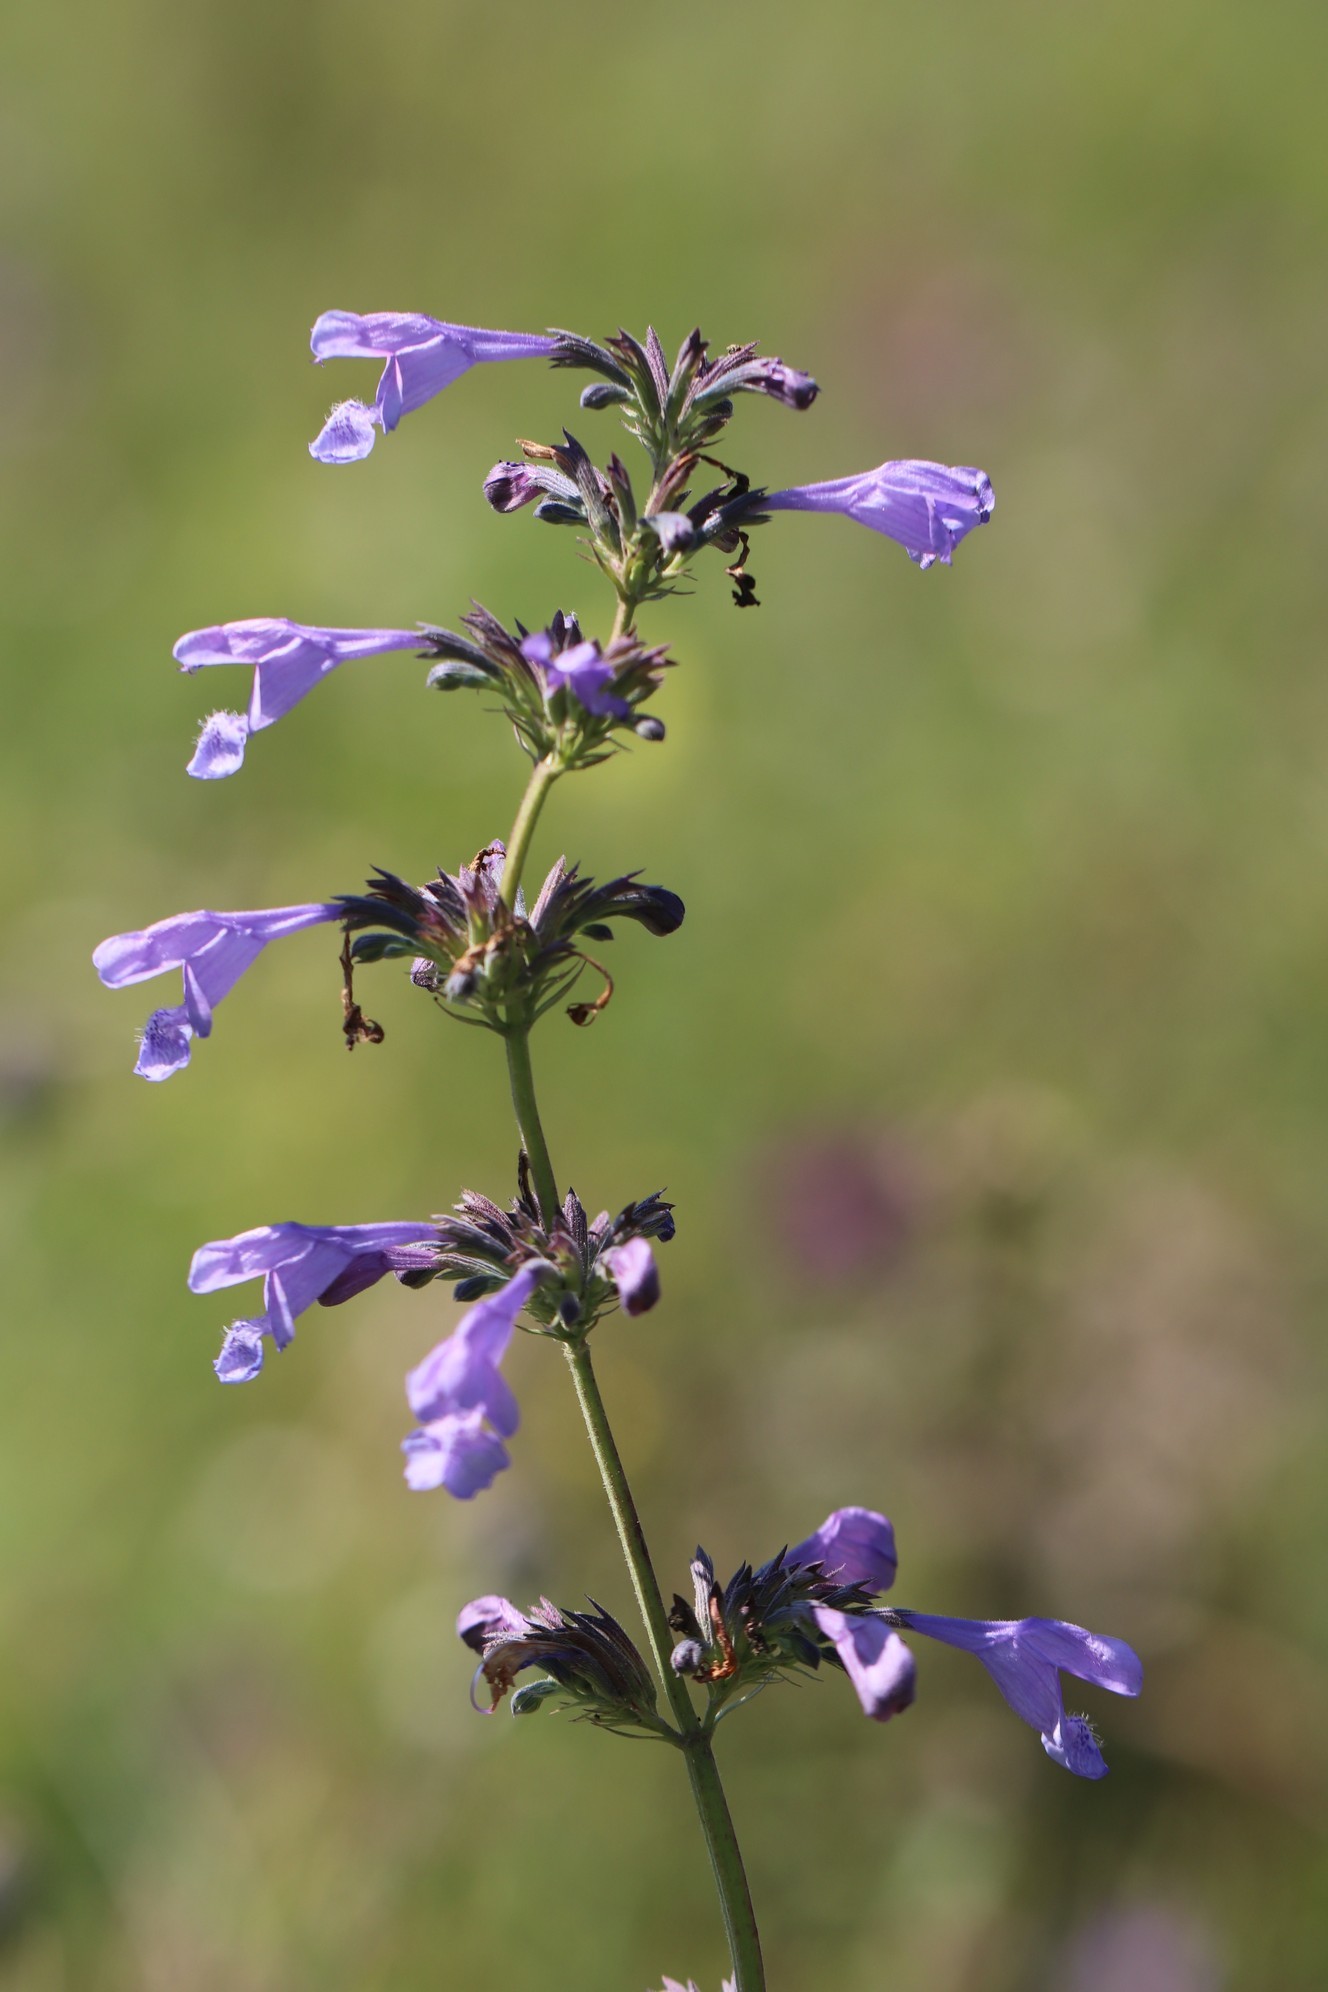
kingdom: Plantae
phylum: Tracheophyta
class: Magnoliopsida
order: Lamiales
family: Lamiaceae
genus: Nepeta
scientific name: Nepeta sibirica
